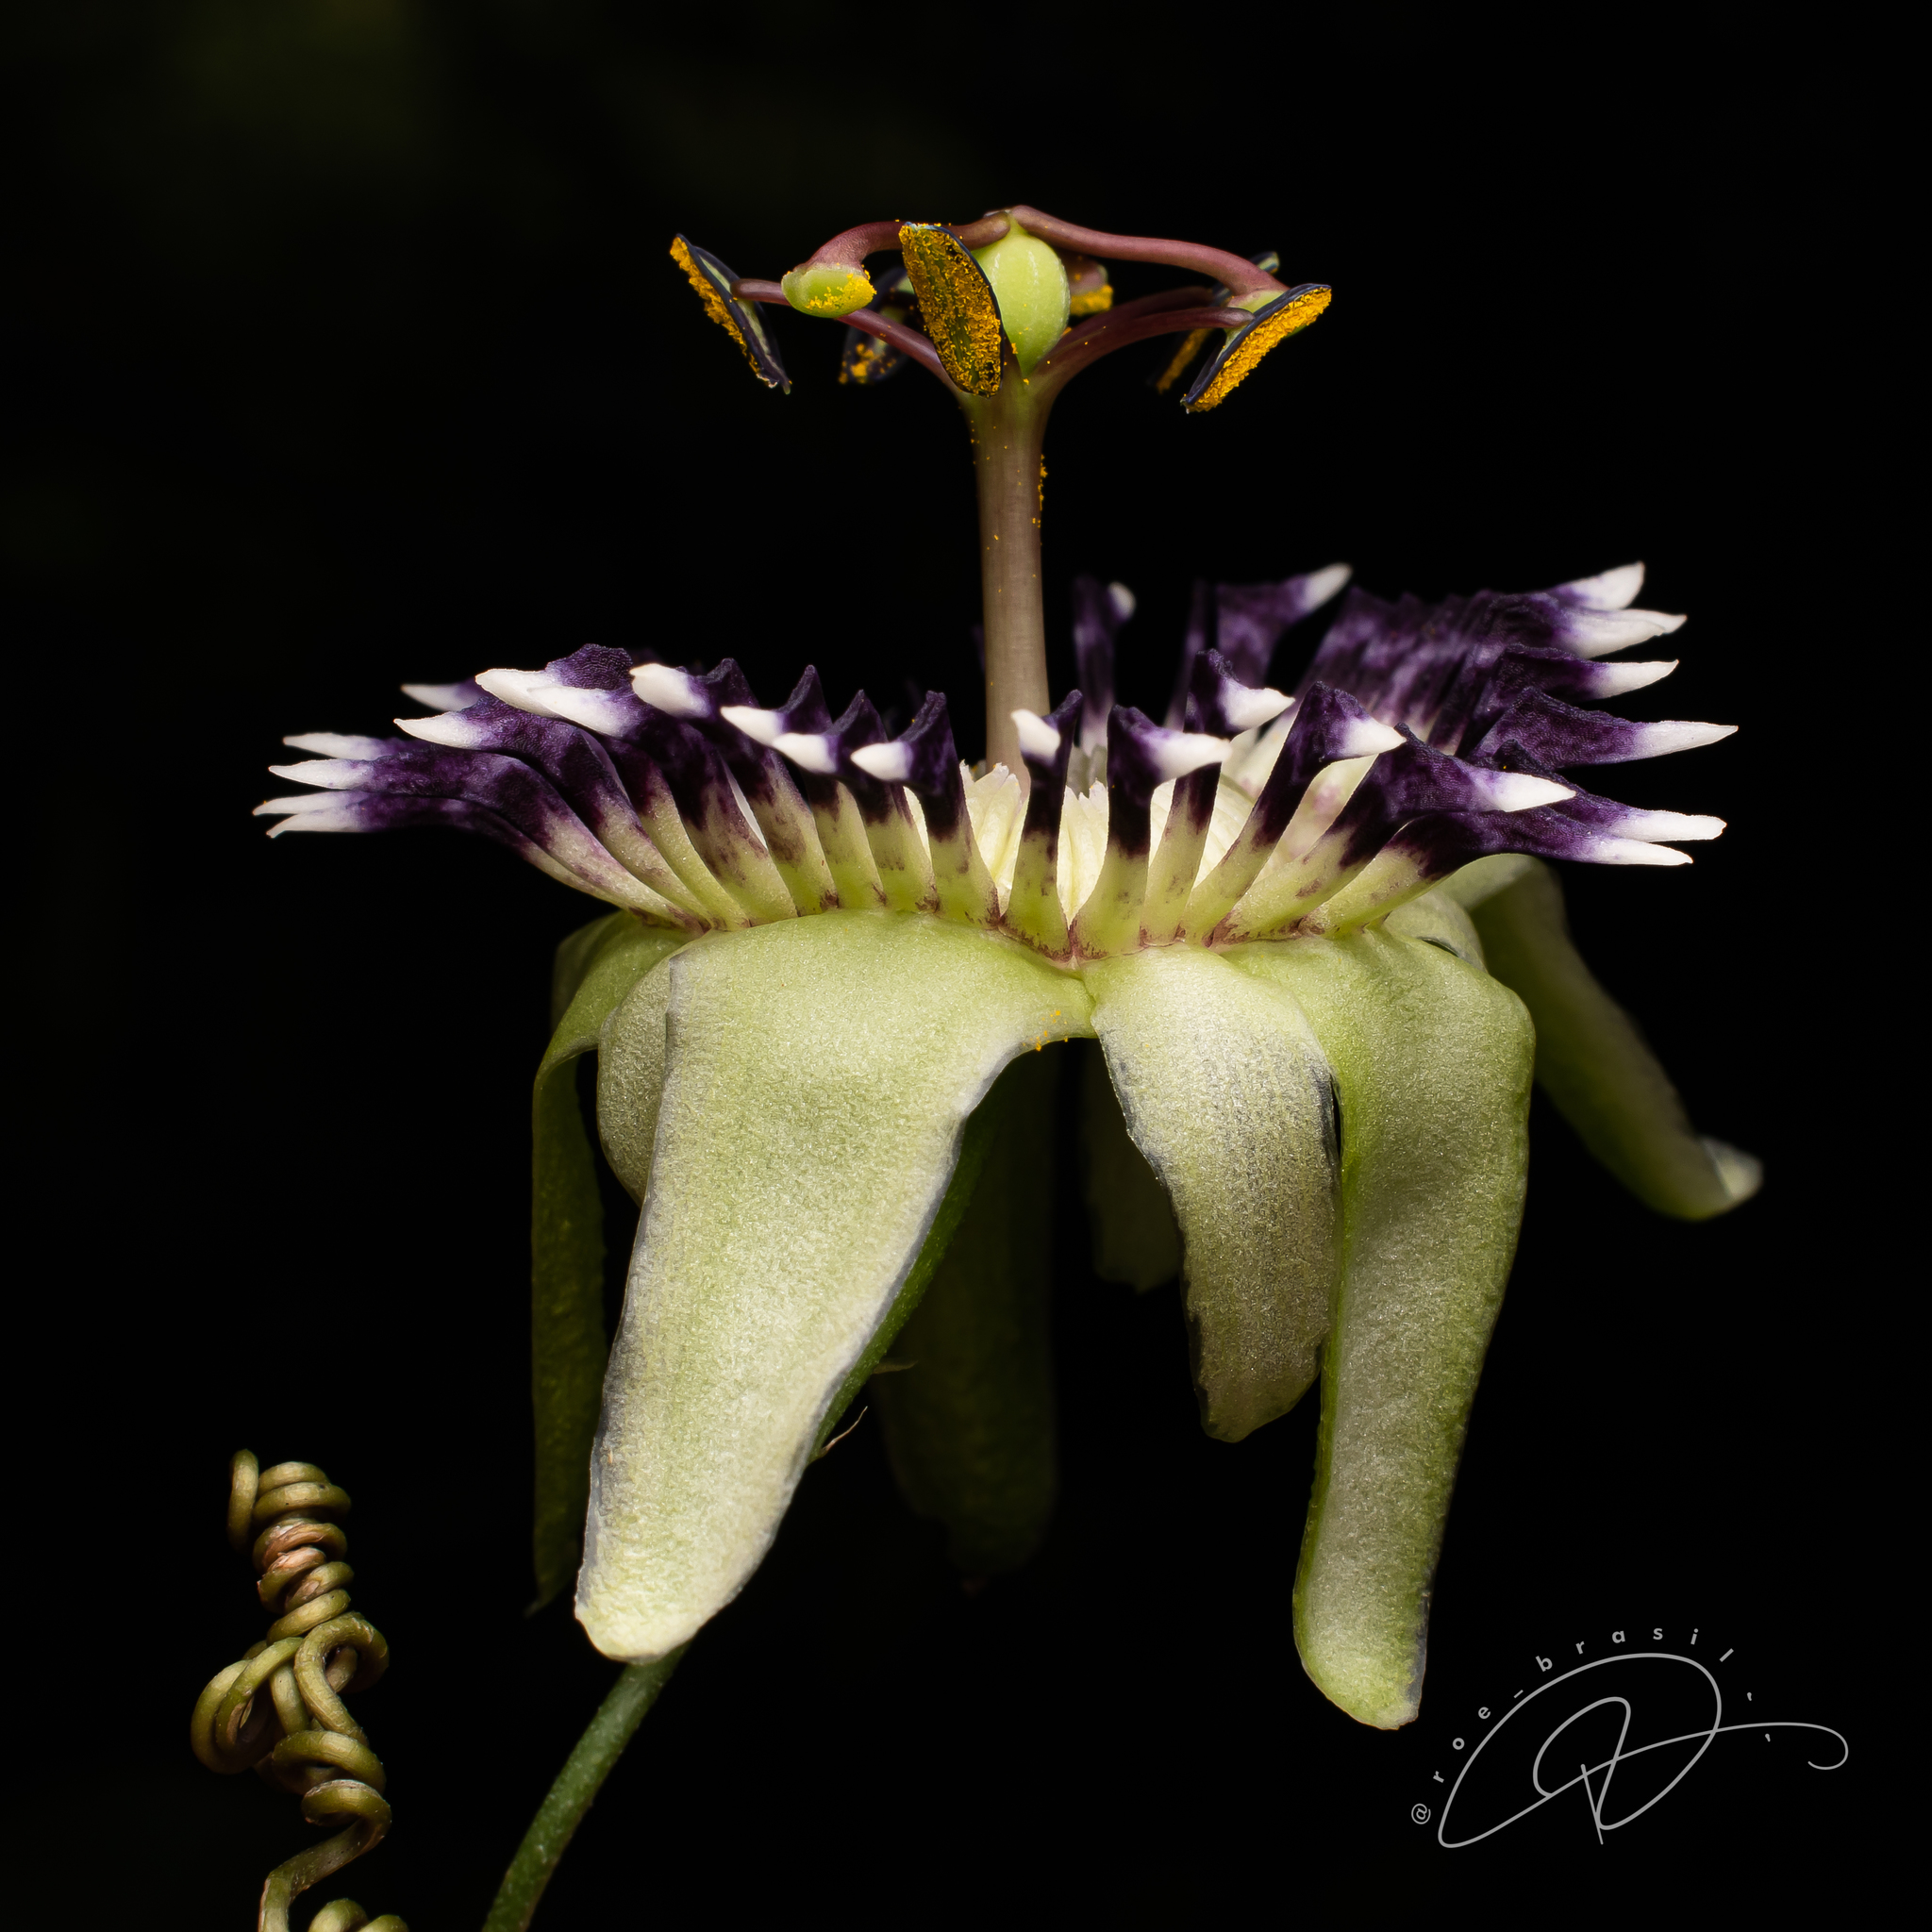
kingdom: Plantae
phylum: Tracheophyta
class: Magnoliopsida
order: Malpighiales
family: Passifloraceae
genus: Passiflora
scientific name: Passiflora porophylla
